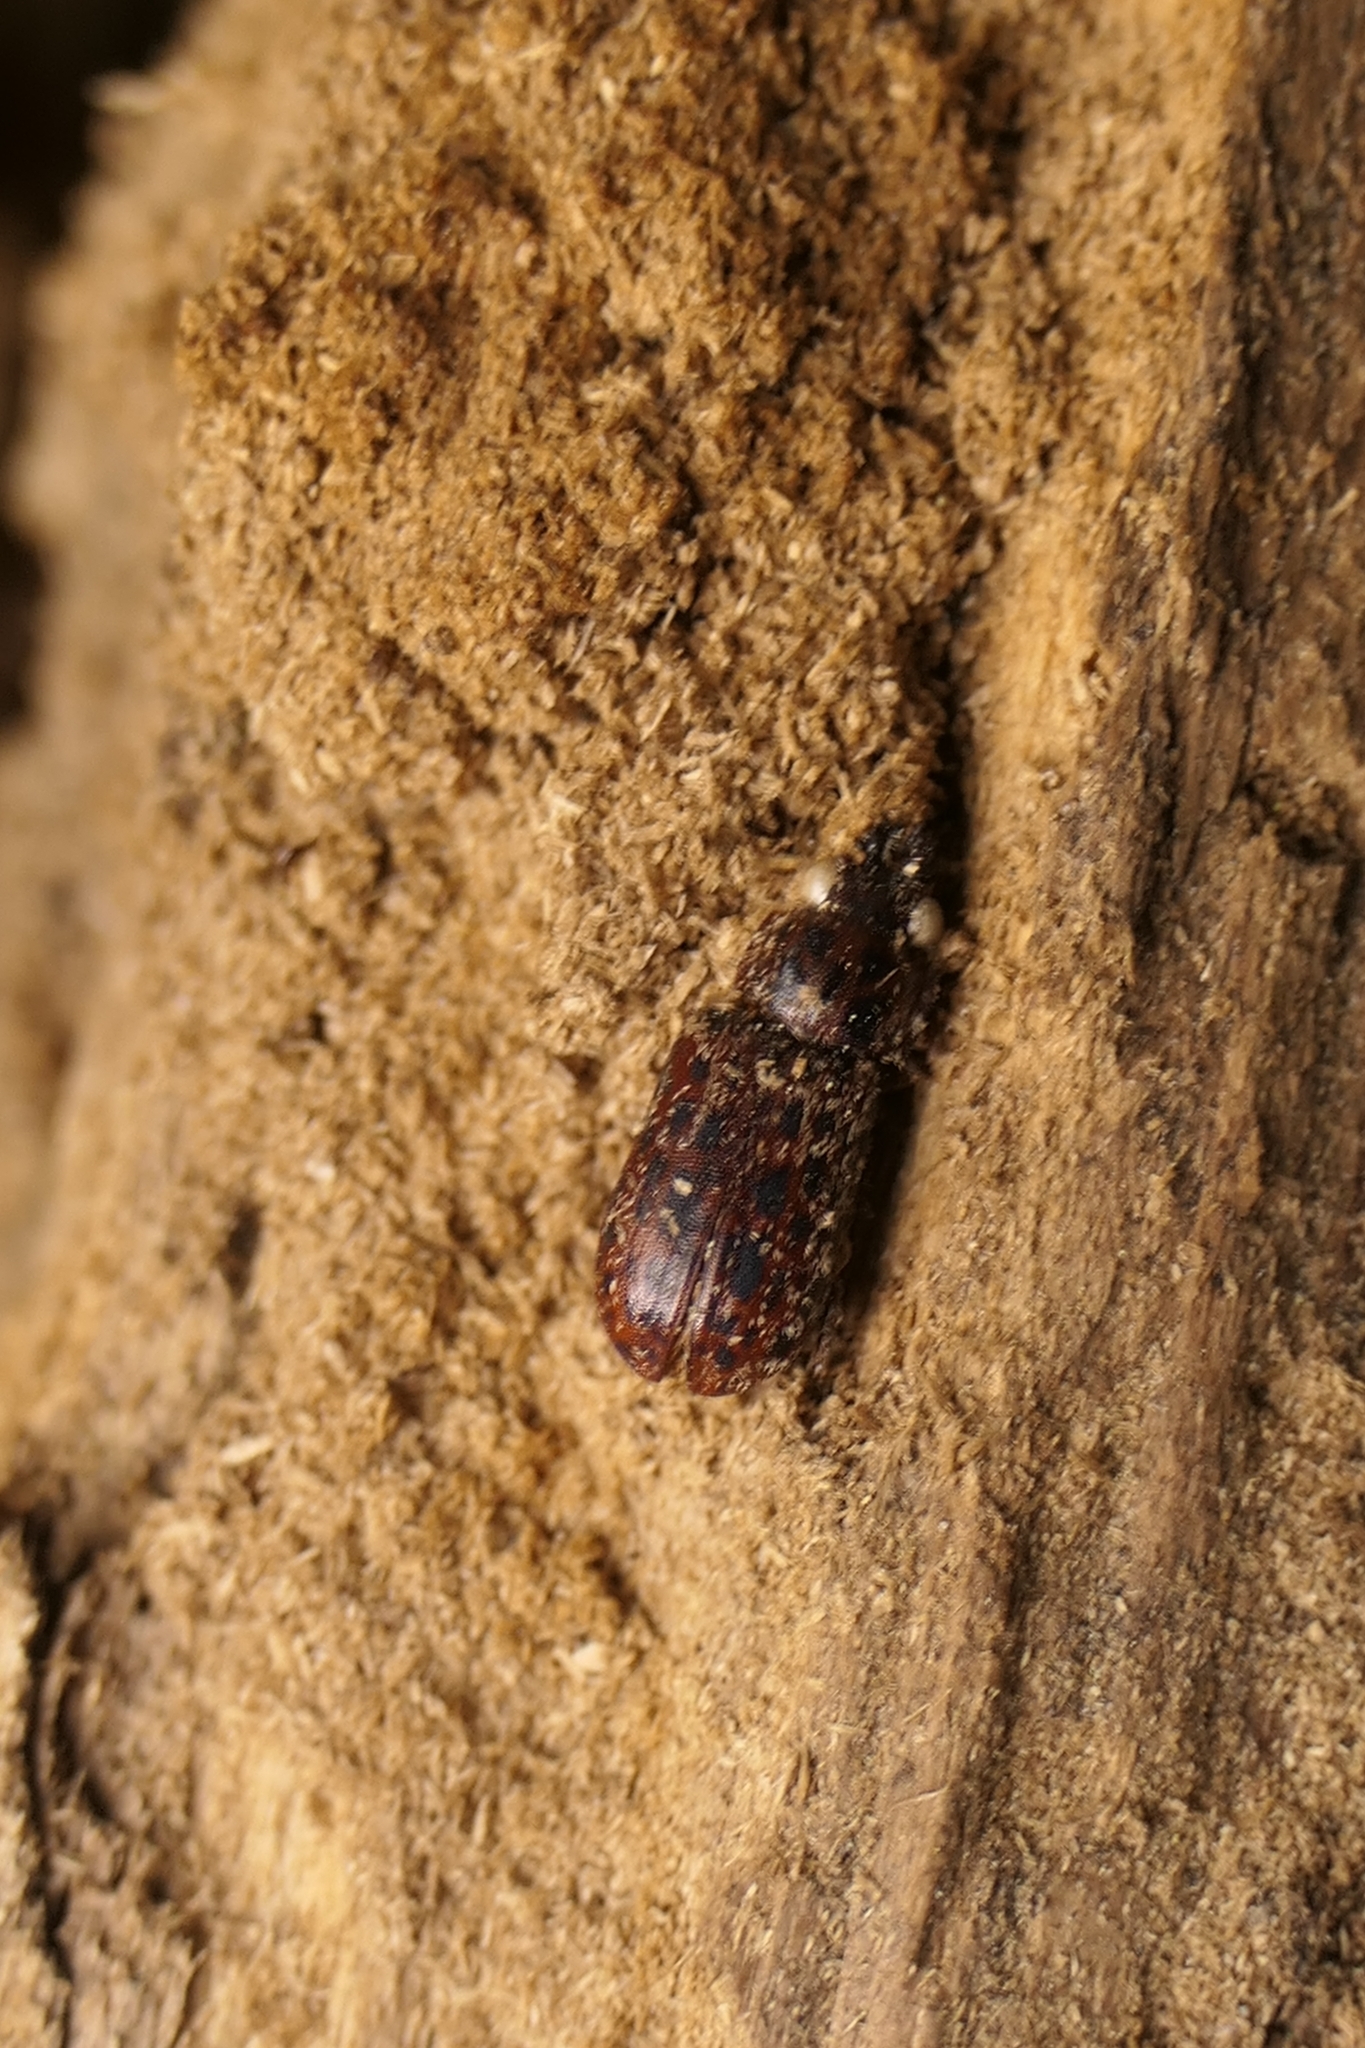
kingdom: Animalia
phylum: Arthropoda
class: Insecta
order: Coleoptera
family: Lucanidae
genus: Mitophyllus
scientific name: Mitophyllus irroratus
